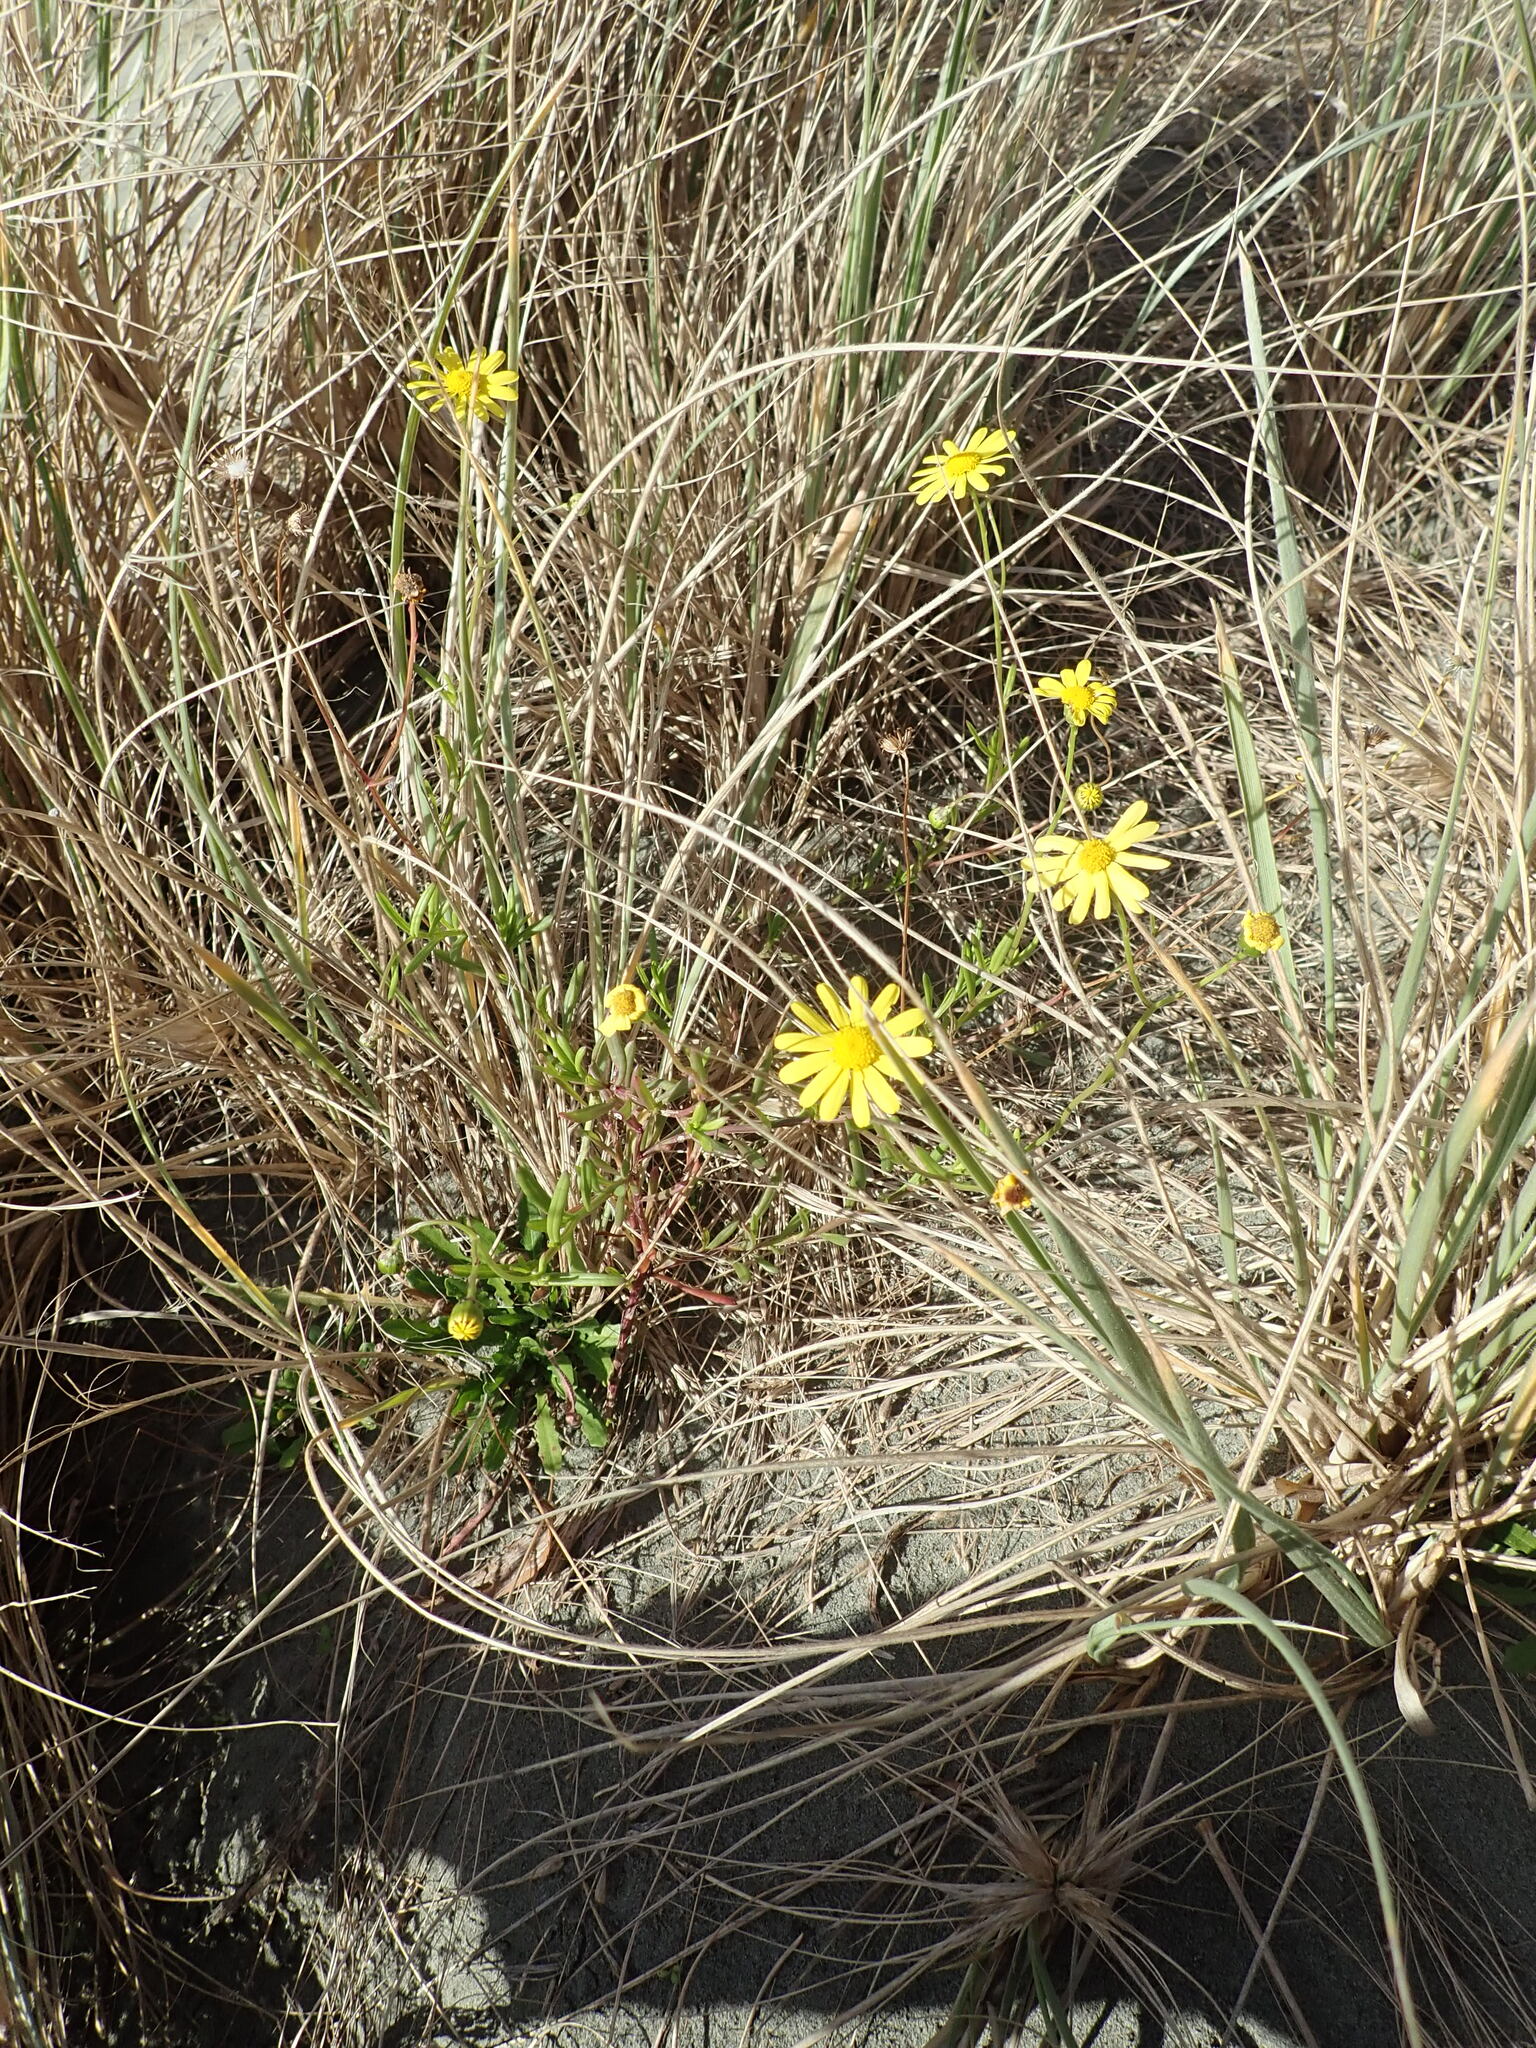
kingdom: Plantae
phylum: Tracheophyta
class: Magnoliopsida
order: Asterales
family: Asteraceae
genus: Senecio
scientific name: Senecio skirrhodon
